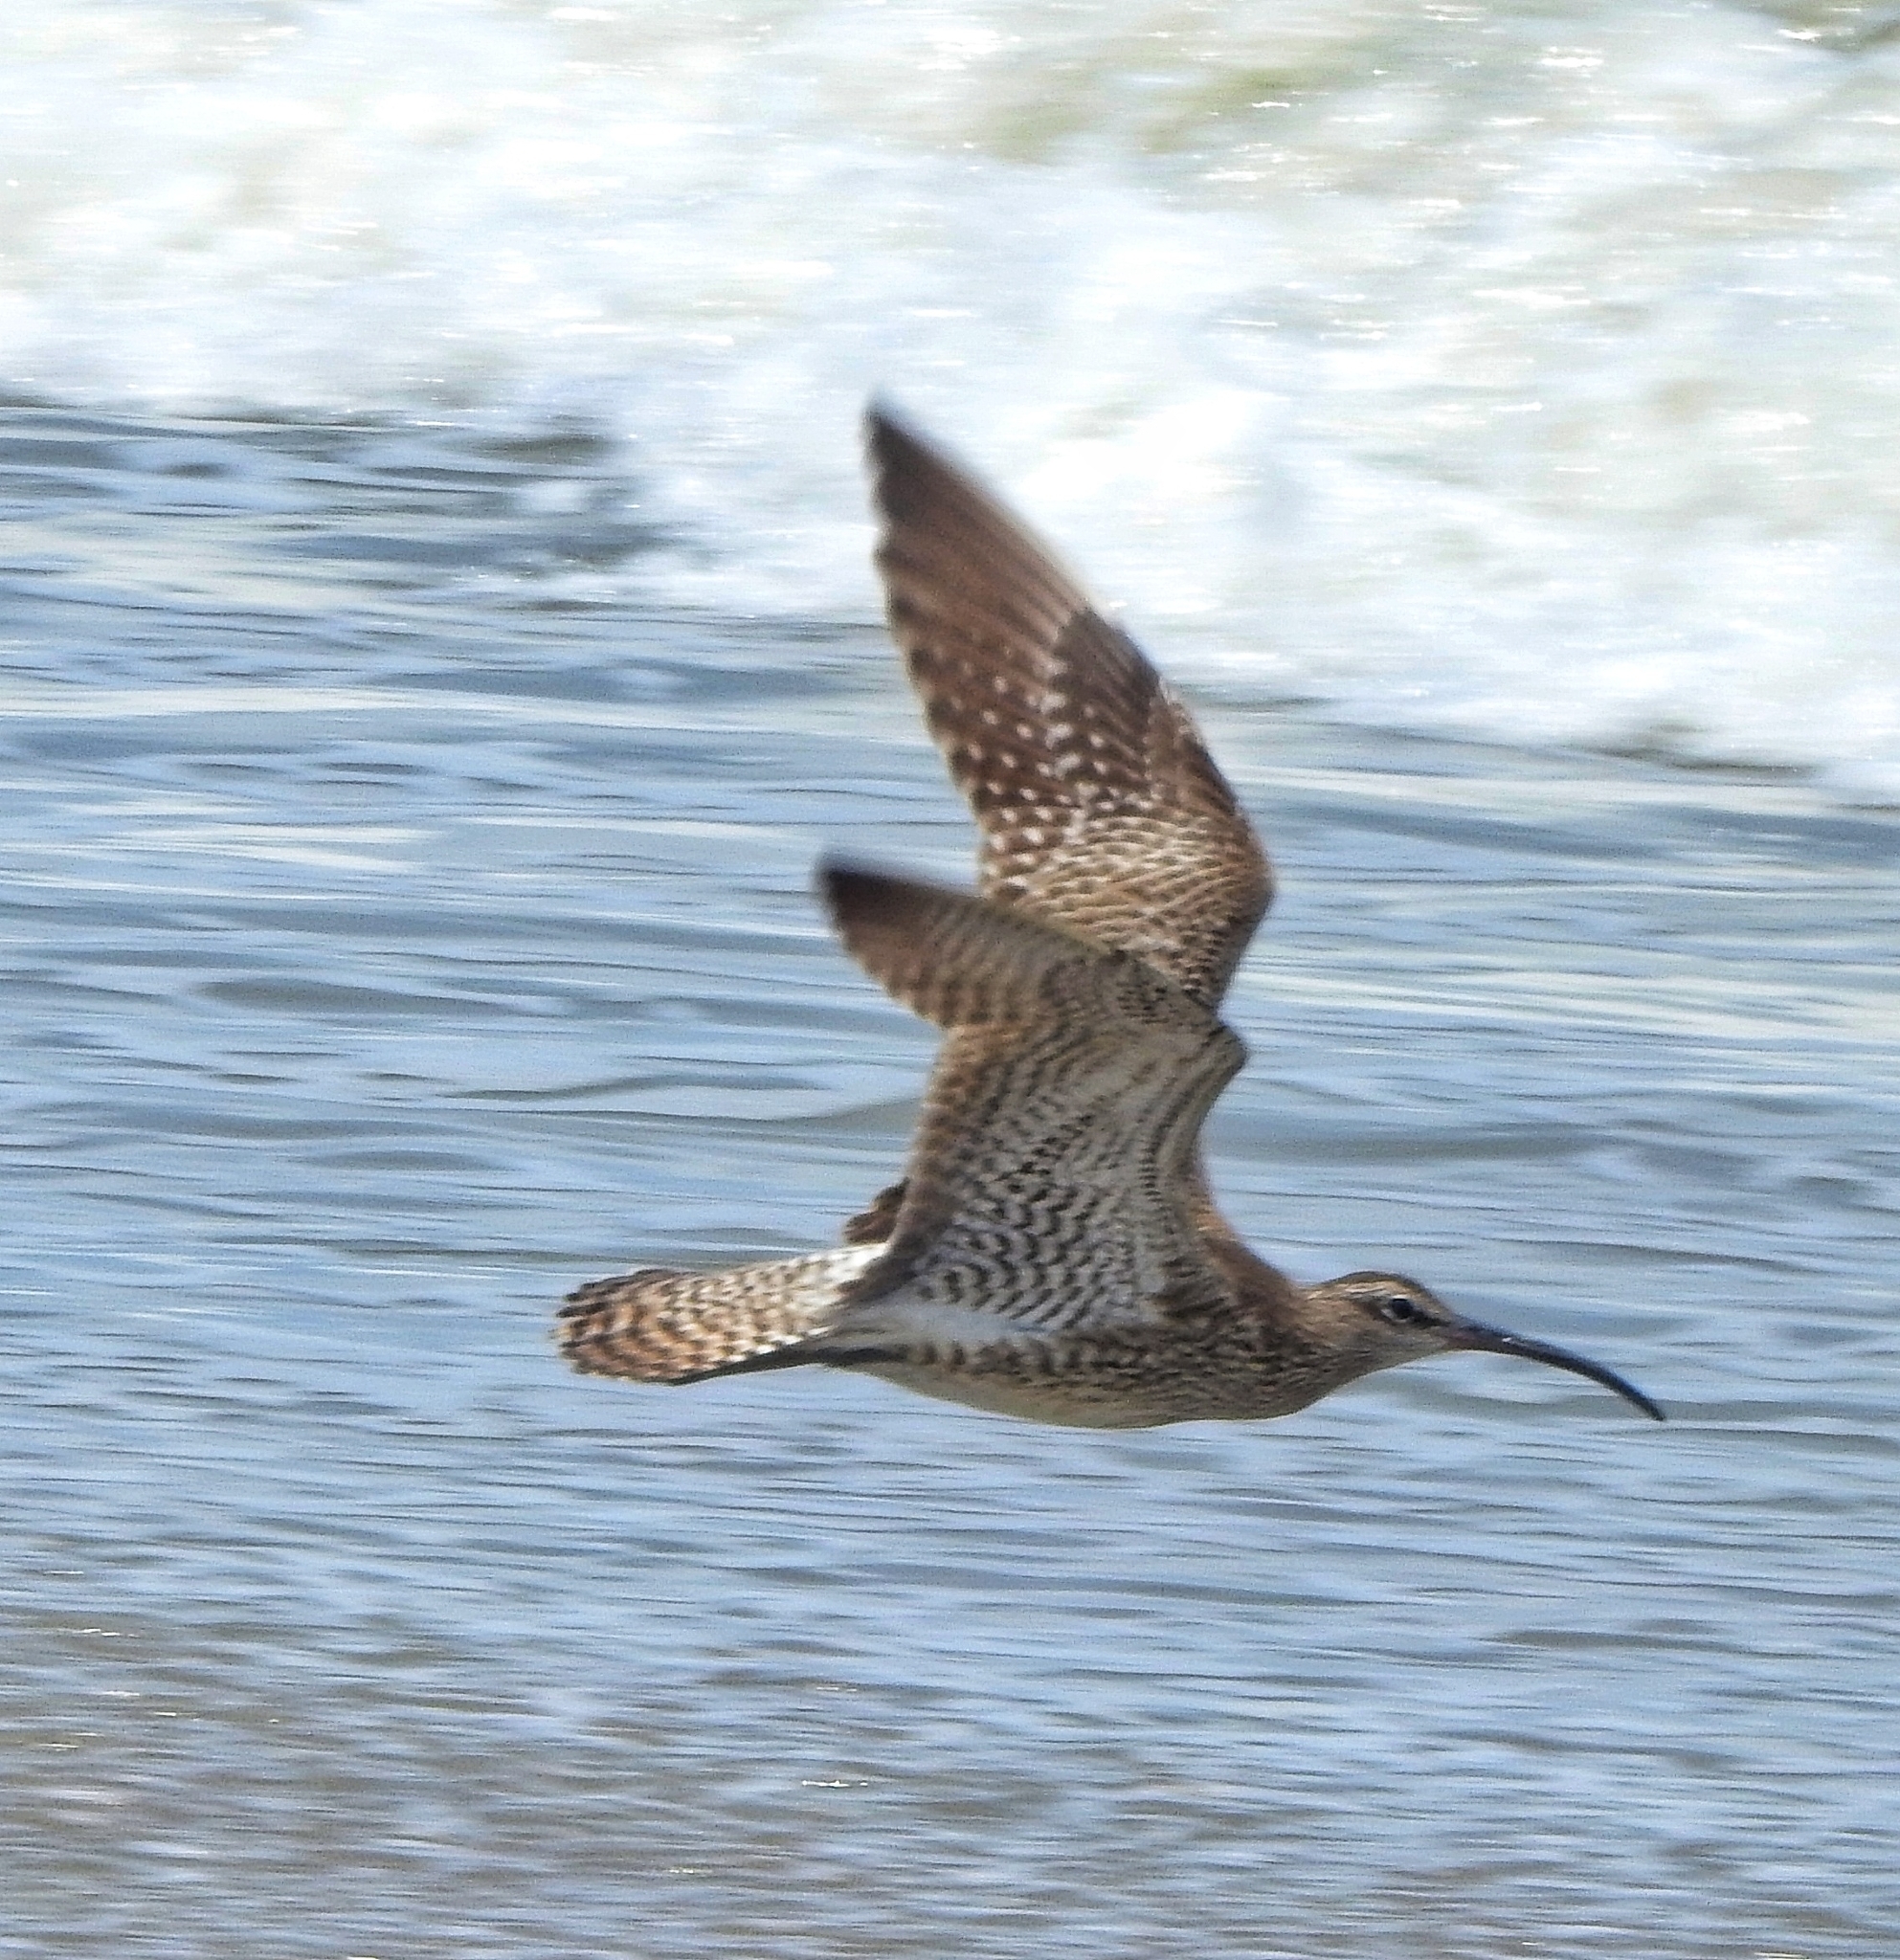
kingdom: Animalia
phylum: Chordata
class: Aves
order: Charadriiformes
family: Scolopacidae
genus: Numenius
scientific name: Numenius phaeopus
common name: Whimbrel
